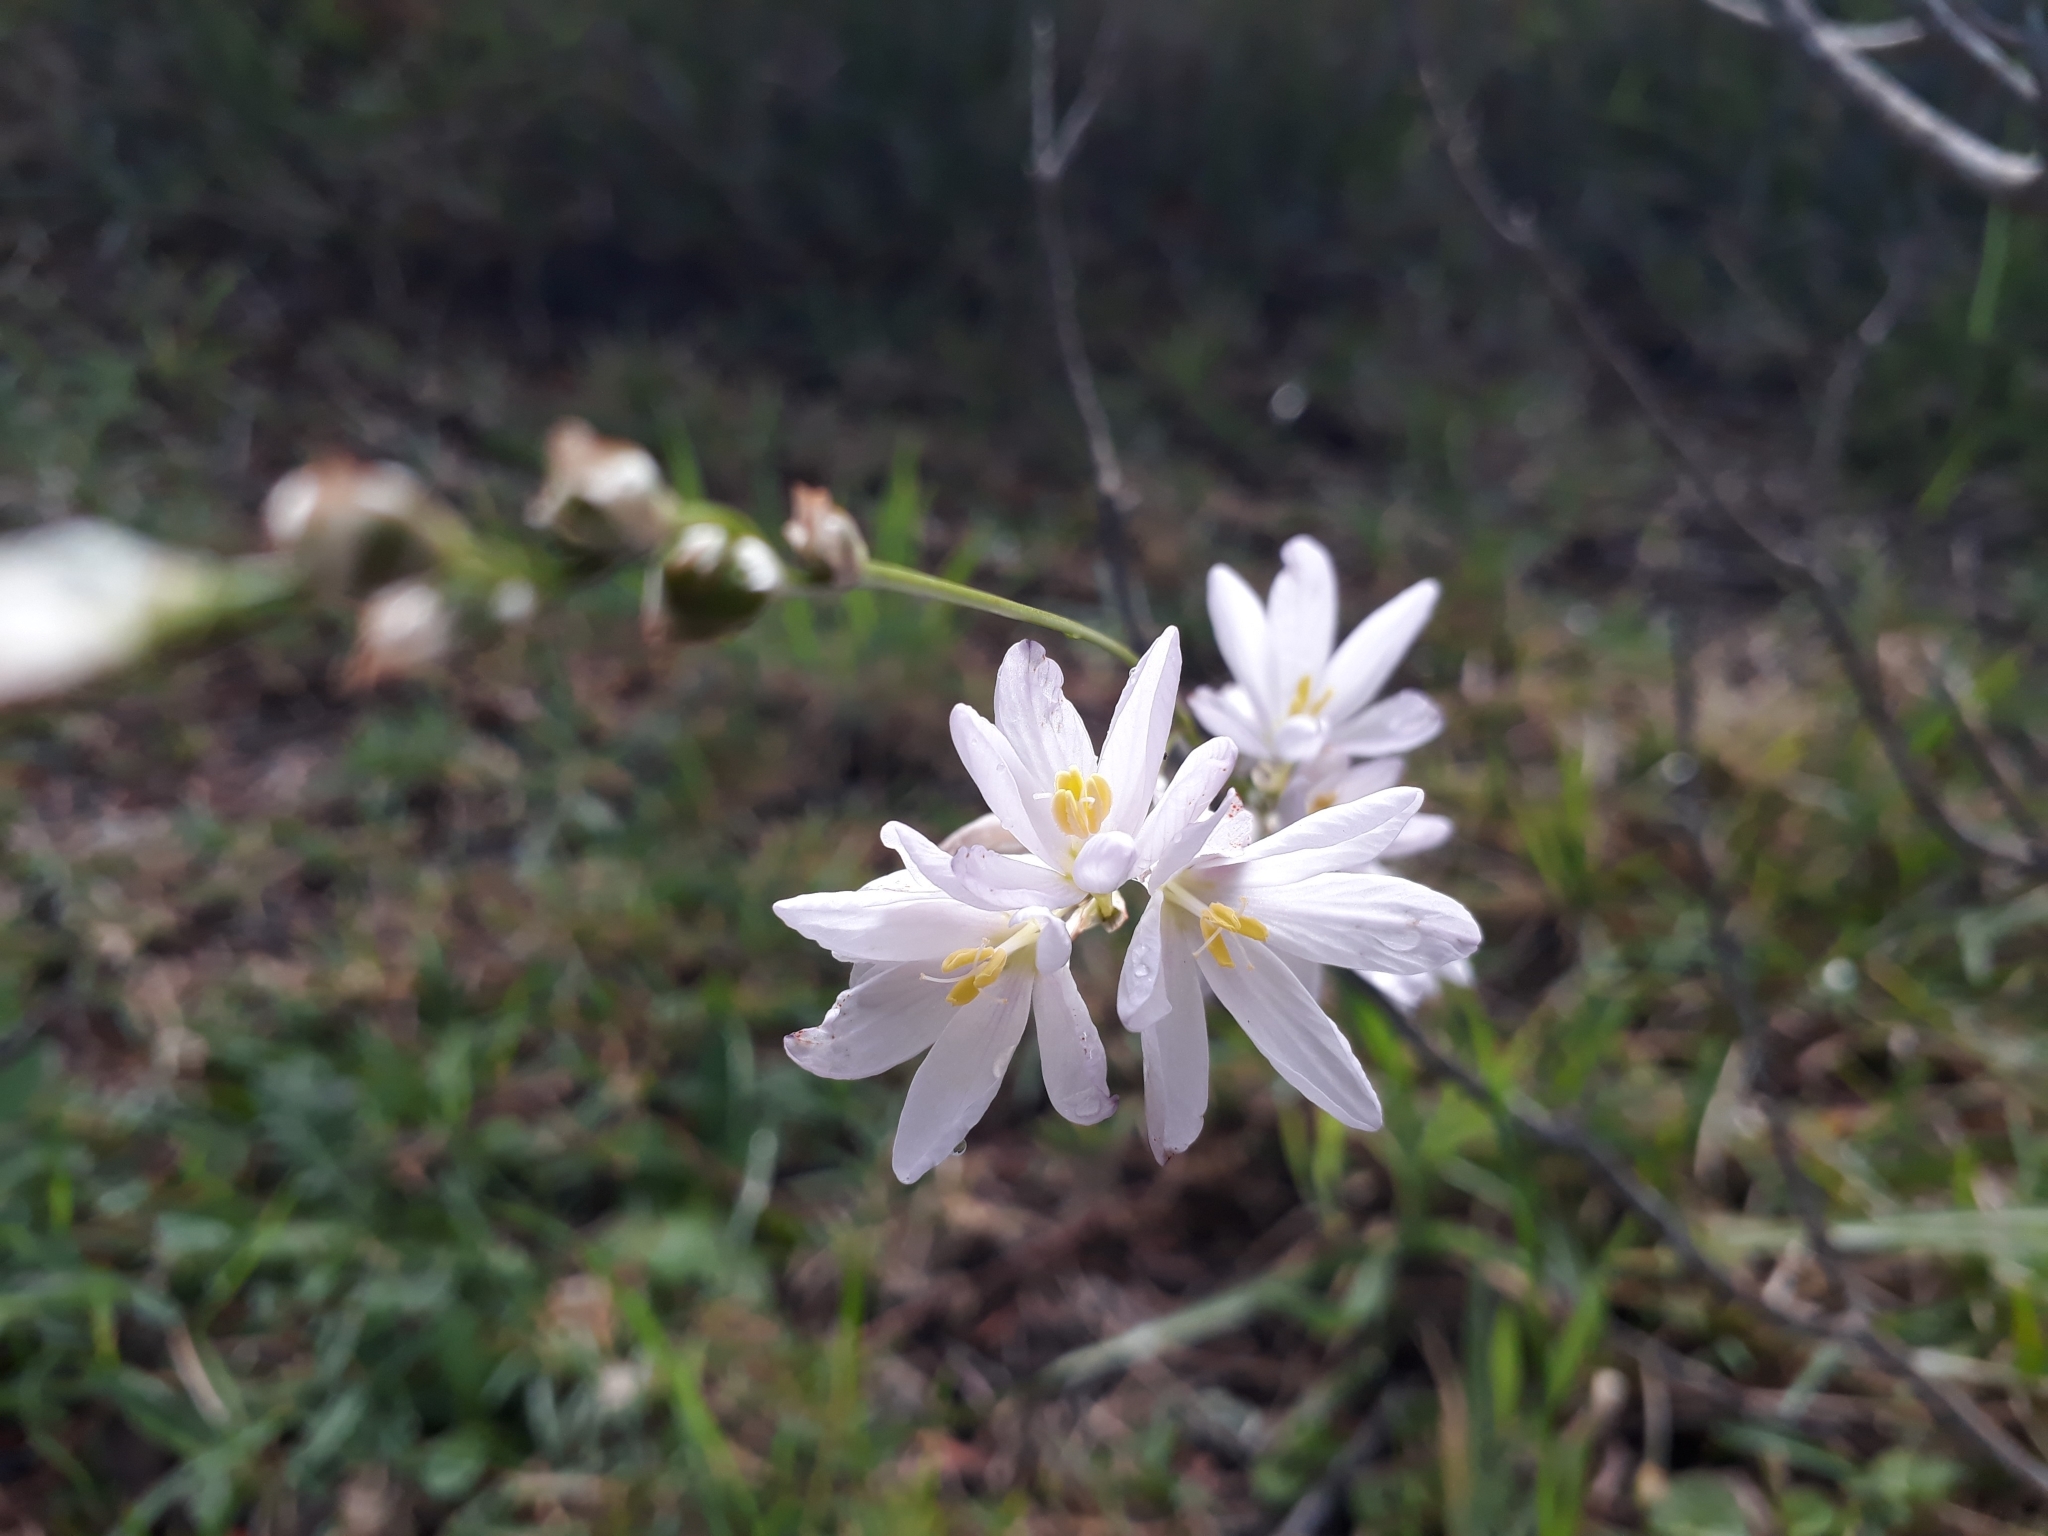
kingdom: Plantae
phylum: Tracheophyta
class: Liliopsida
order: Asparagales
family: Iridaceae
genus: Ixia
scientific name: Ixia orientalis
